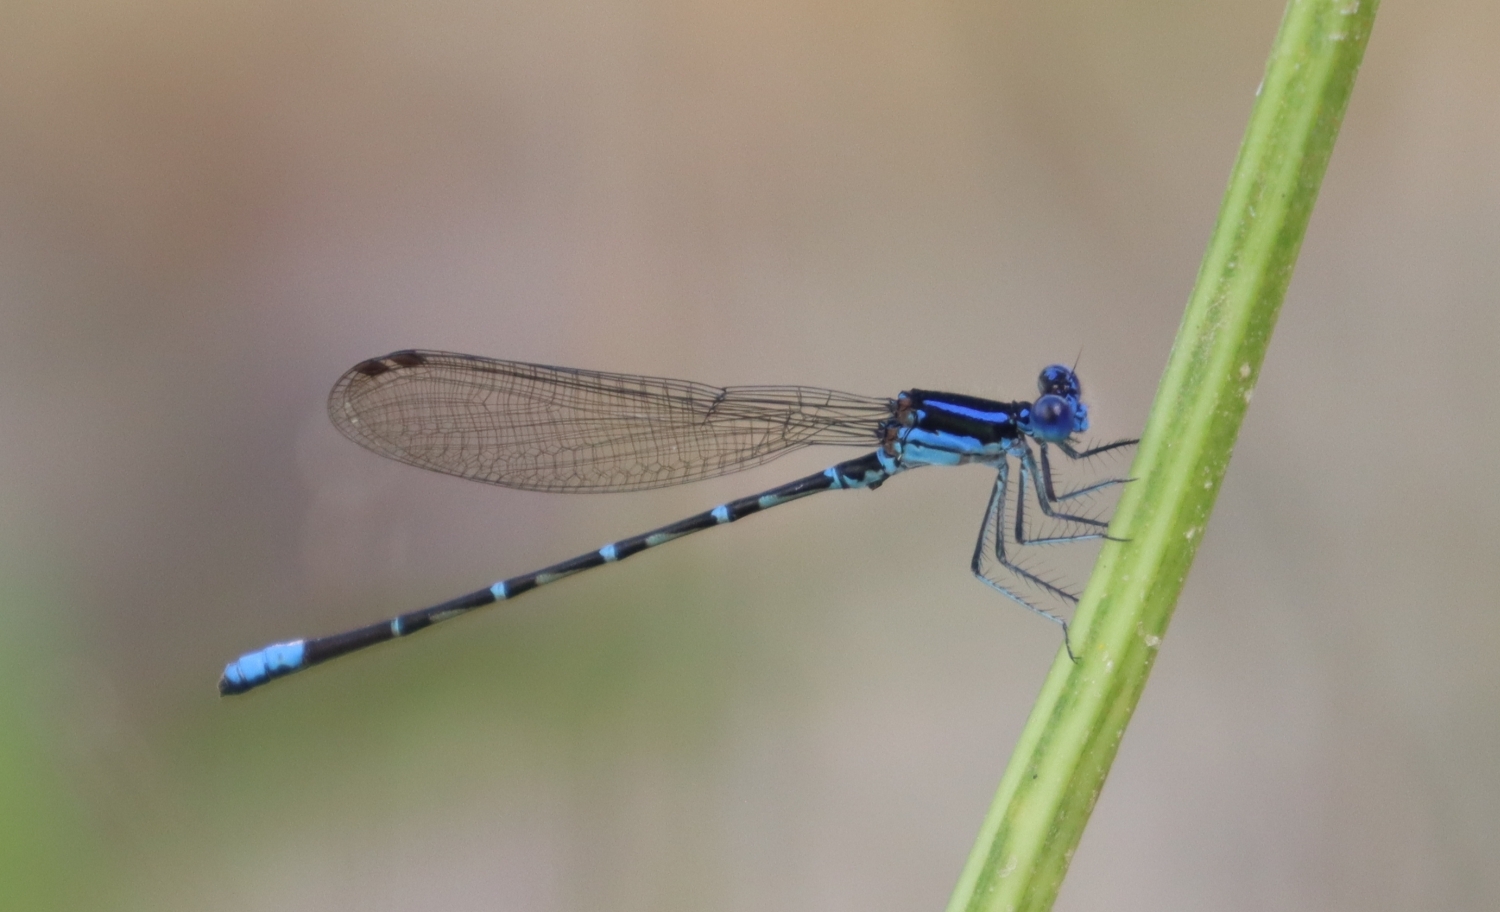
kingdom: Animalia
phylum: Arthropoda
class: Insecta
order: Odonata
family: Coenagrionidae
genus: Argia
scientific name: Argia sedula
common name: Blue-ringed dancer
